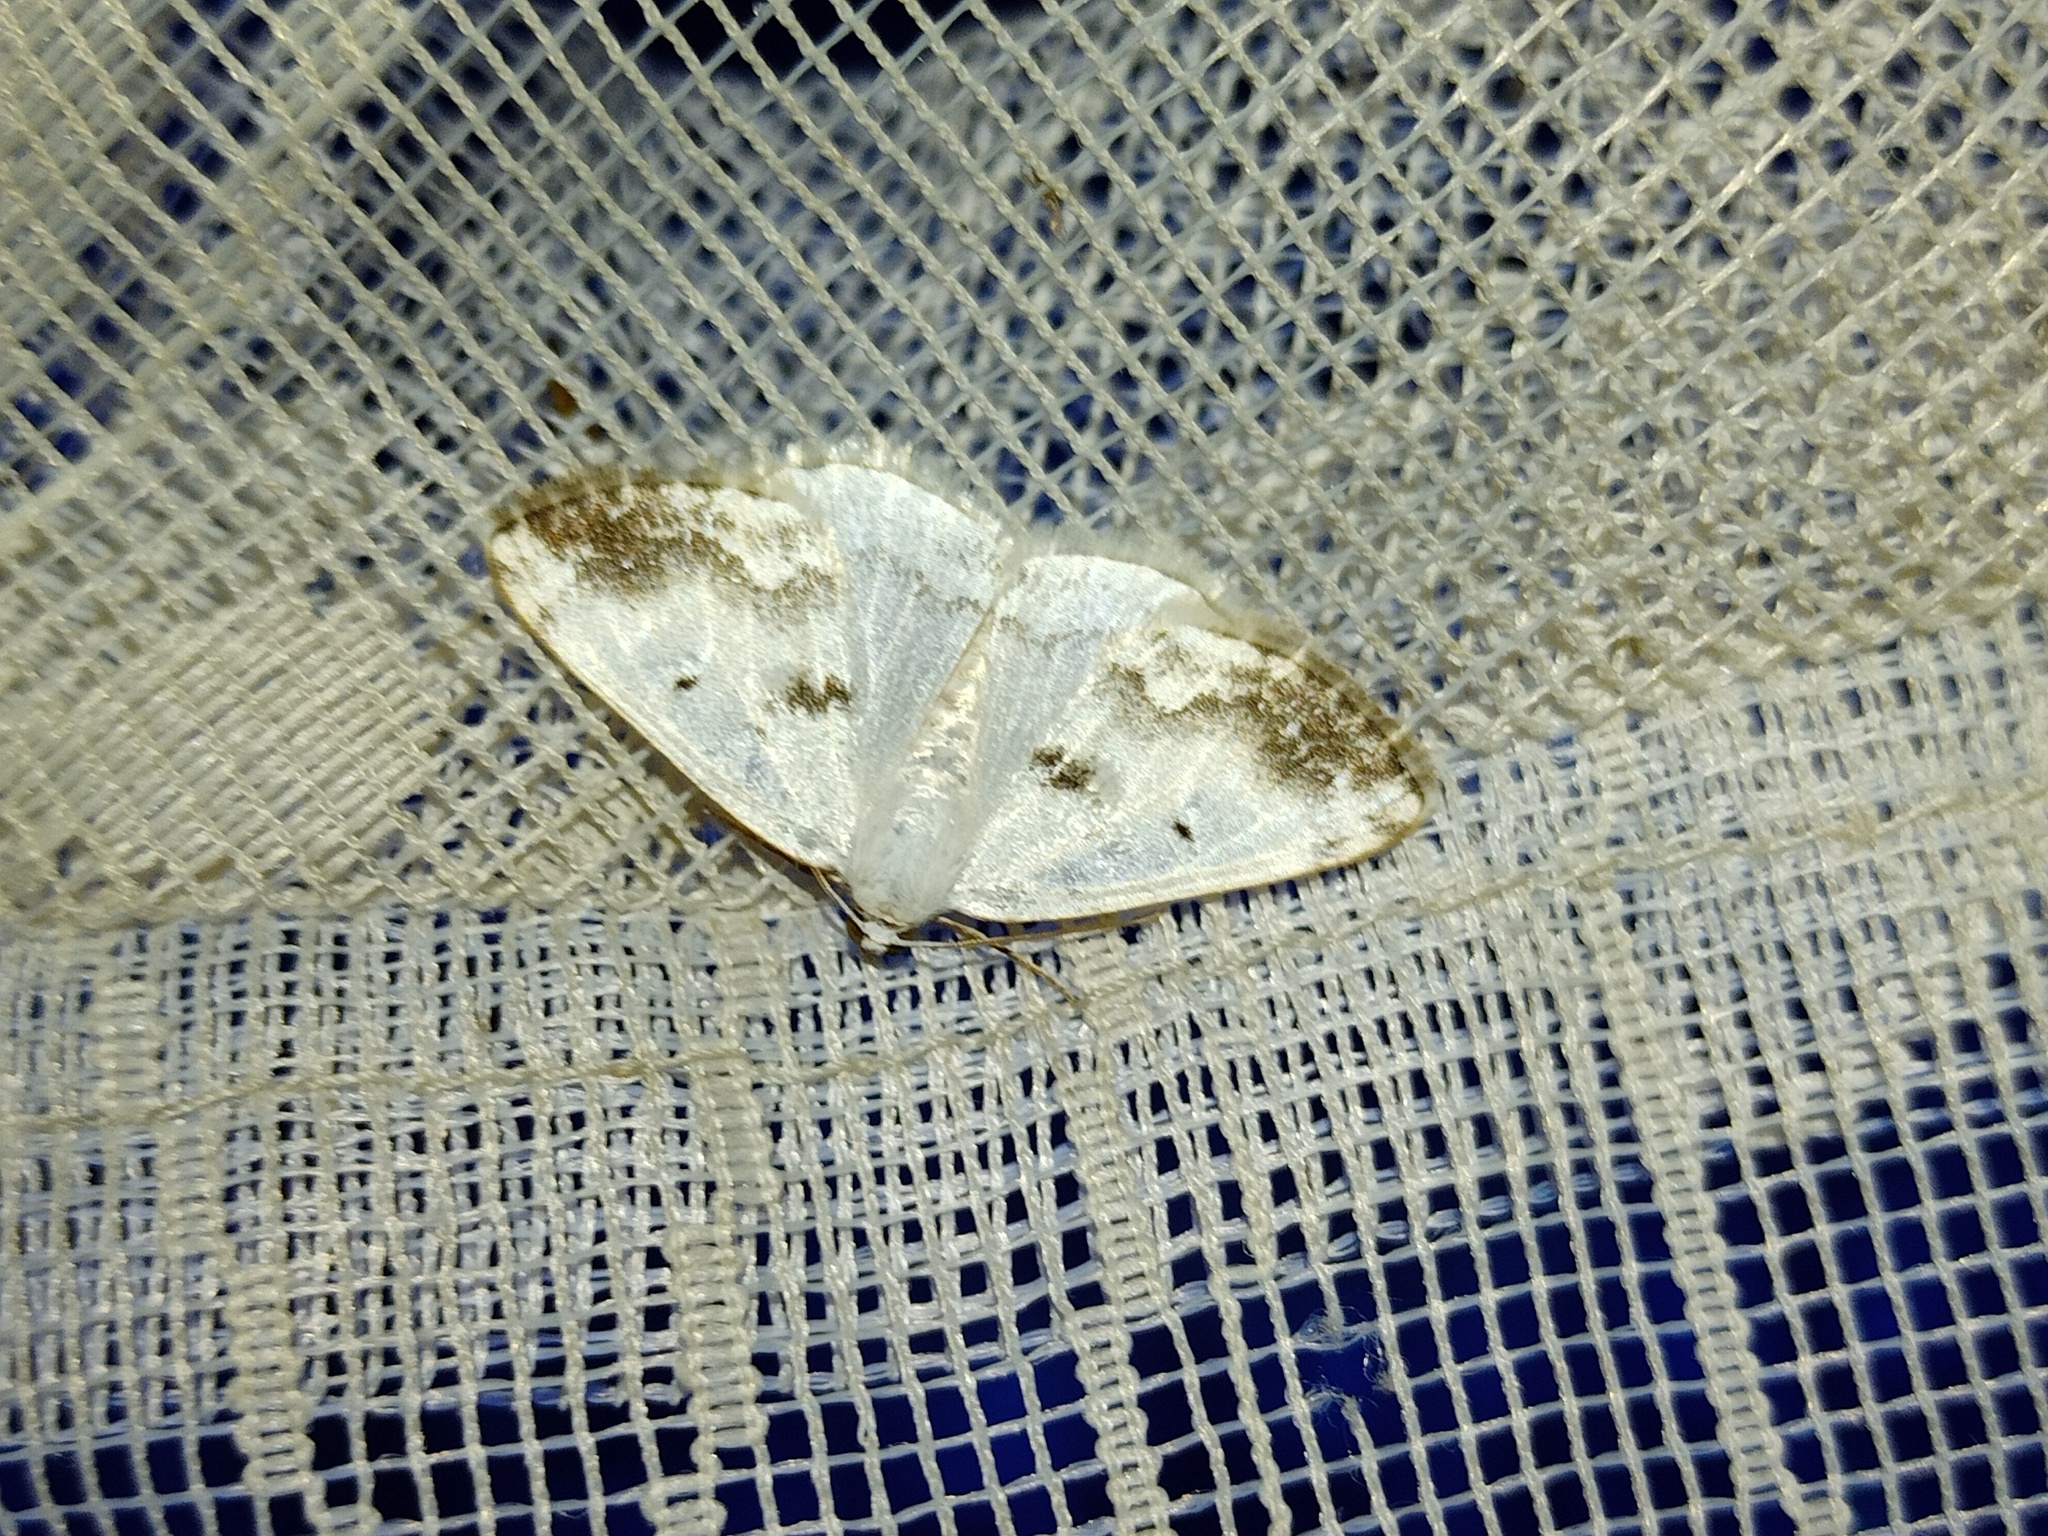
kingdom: Animalia
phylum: Arthropoda
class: Insecta
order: Lepidoptera
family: Geometridae
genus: Lomographa
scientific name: Lomographa temerata
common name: Clouded silver
